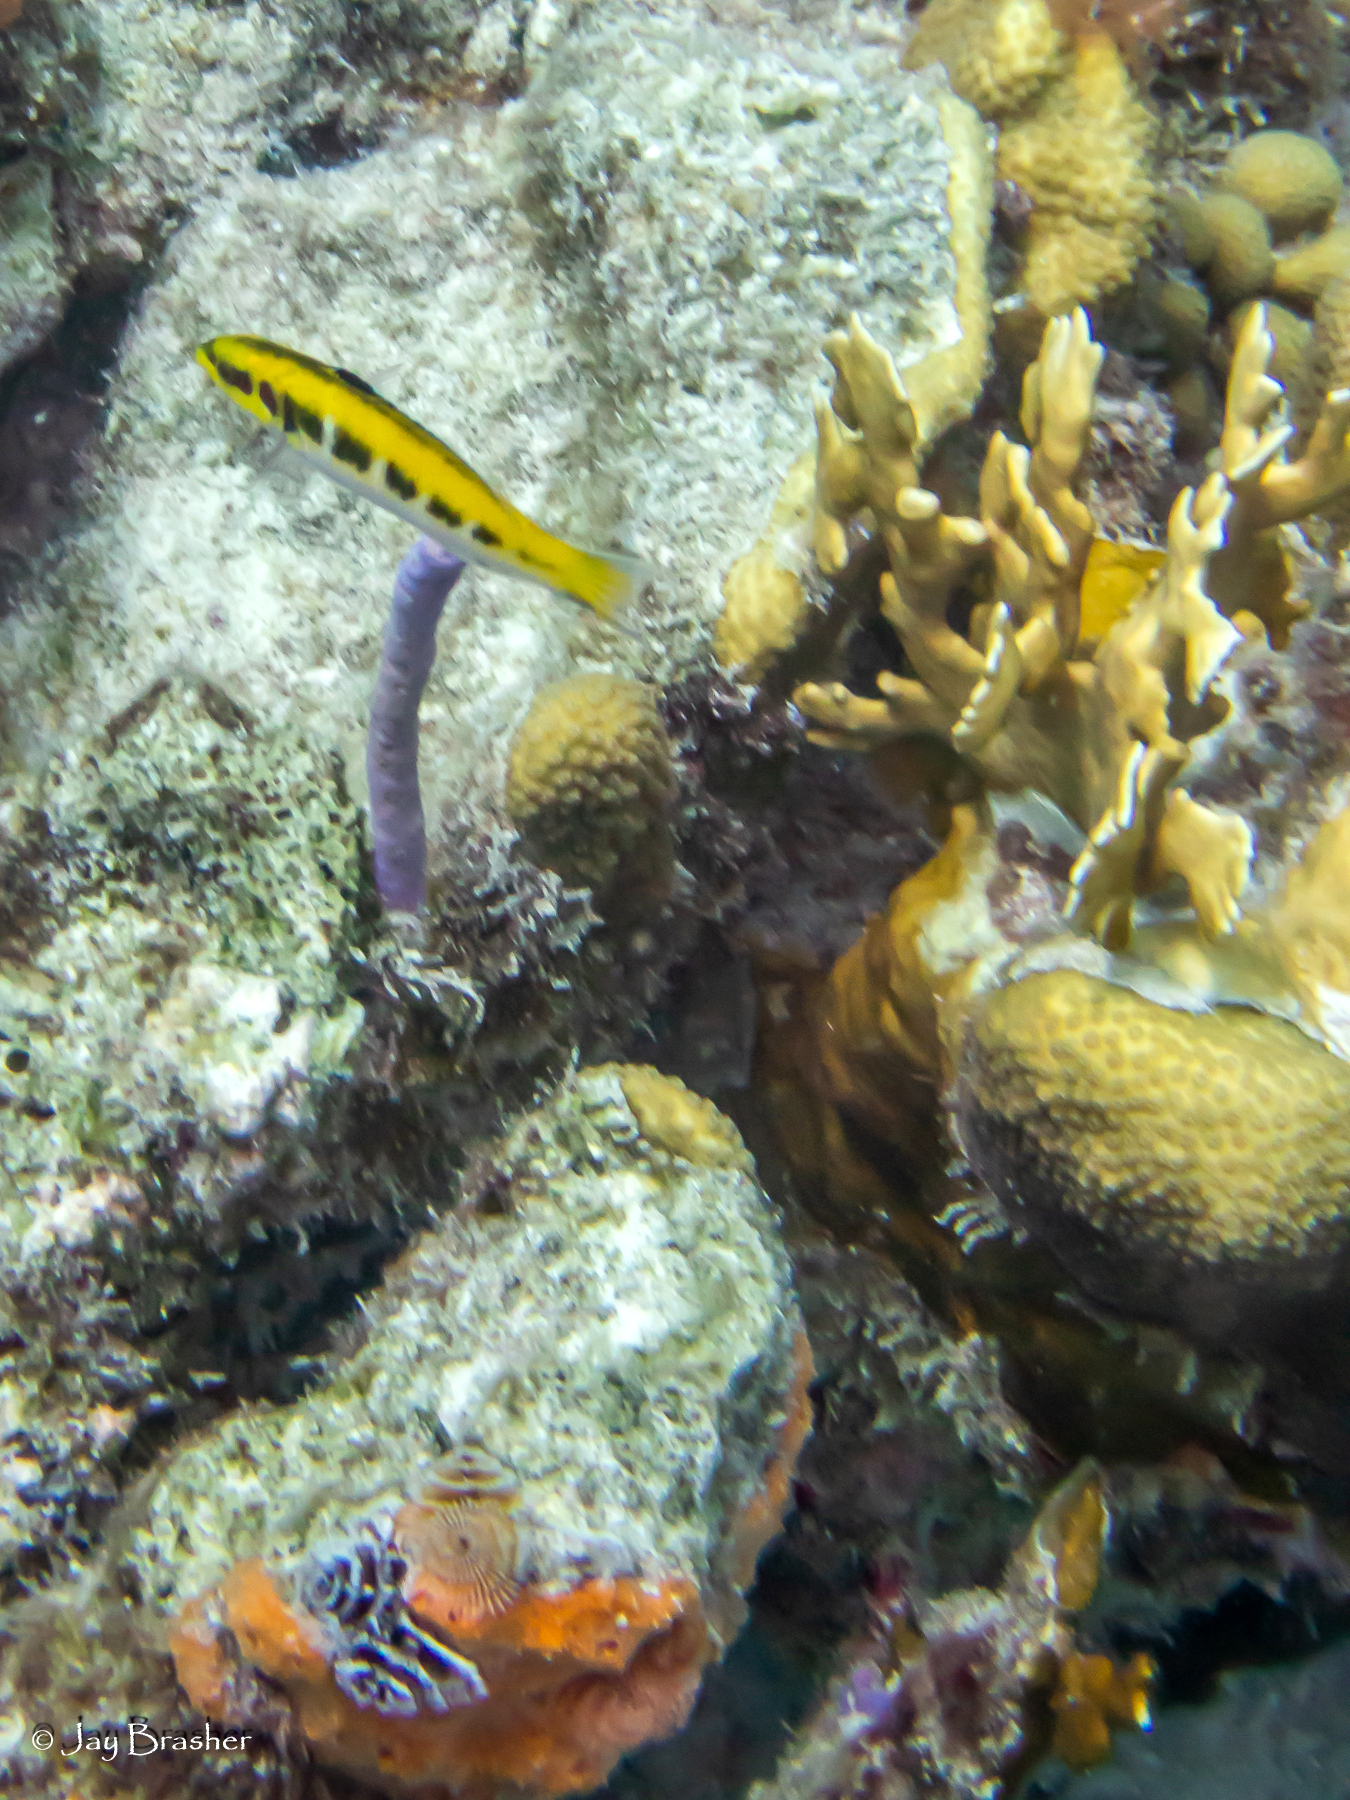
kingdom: Animalia
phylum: Chordata
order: Perciformes
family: Labridae
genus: Thalassoma
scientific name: Thalassoma bifasciatum
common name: Bluehead wrasse
